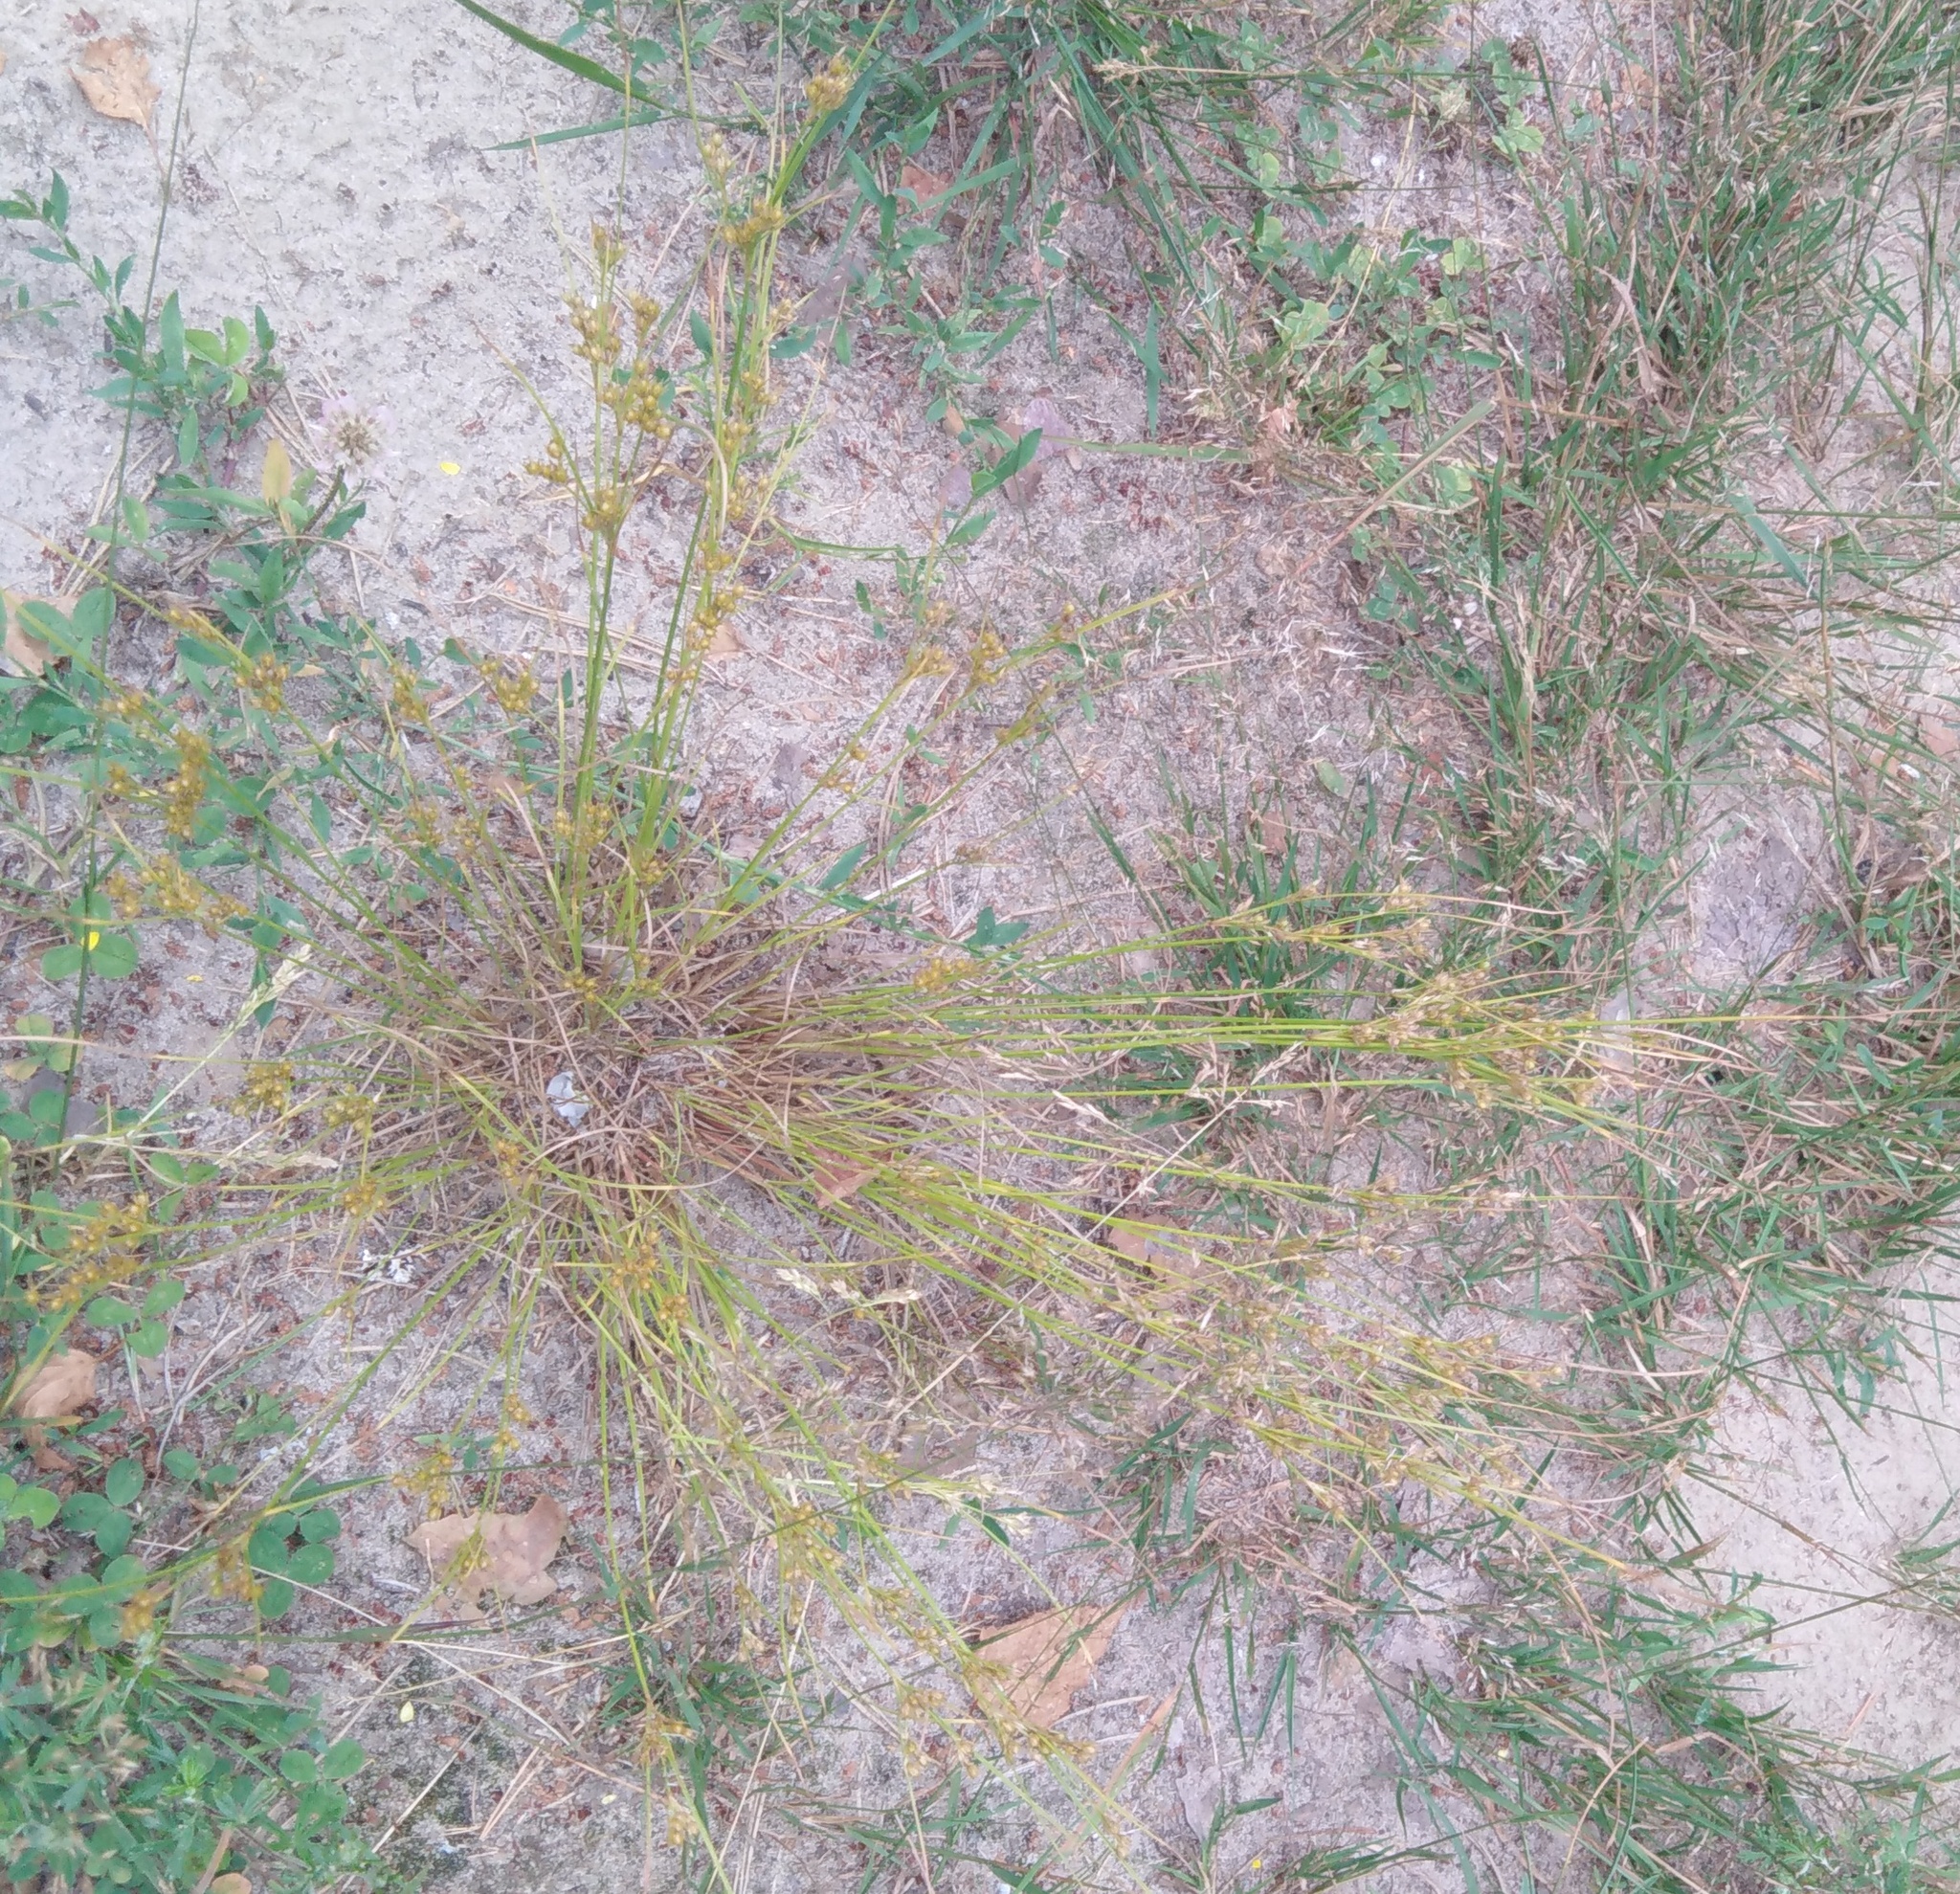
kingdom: Plantae
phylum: Tracheophyta
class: Liliopsida
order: Poales
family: Juncaceae
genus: Juncus
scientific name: Juncus tenuis
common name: Slender rush
